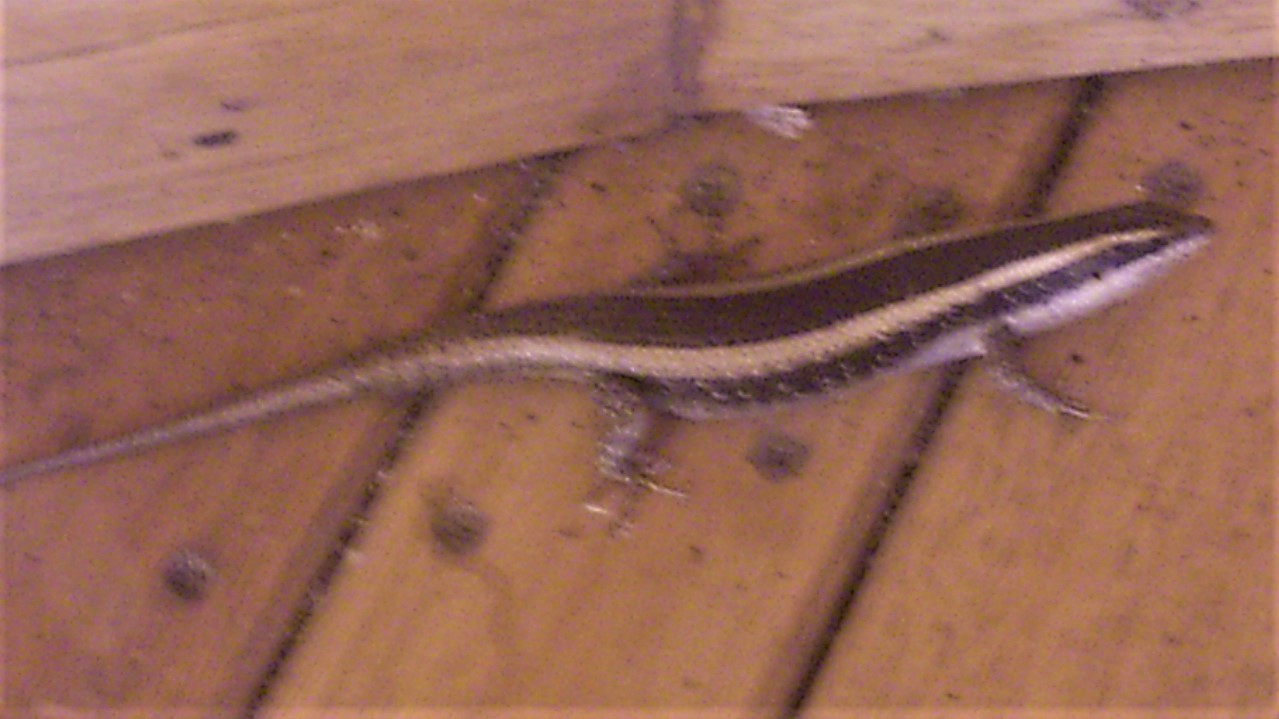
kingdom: Animalia
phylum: Chordata
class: Squamata
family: Scincidae
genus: Trachylepis
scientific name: Trachylepis striata
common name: African striped mabuya
